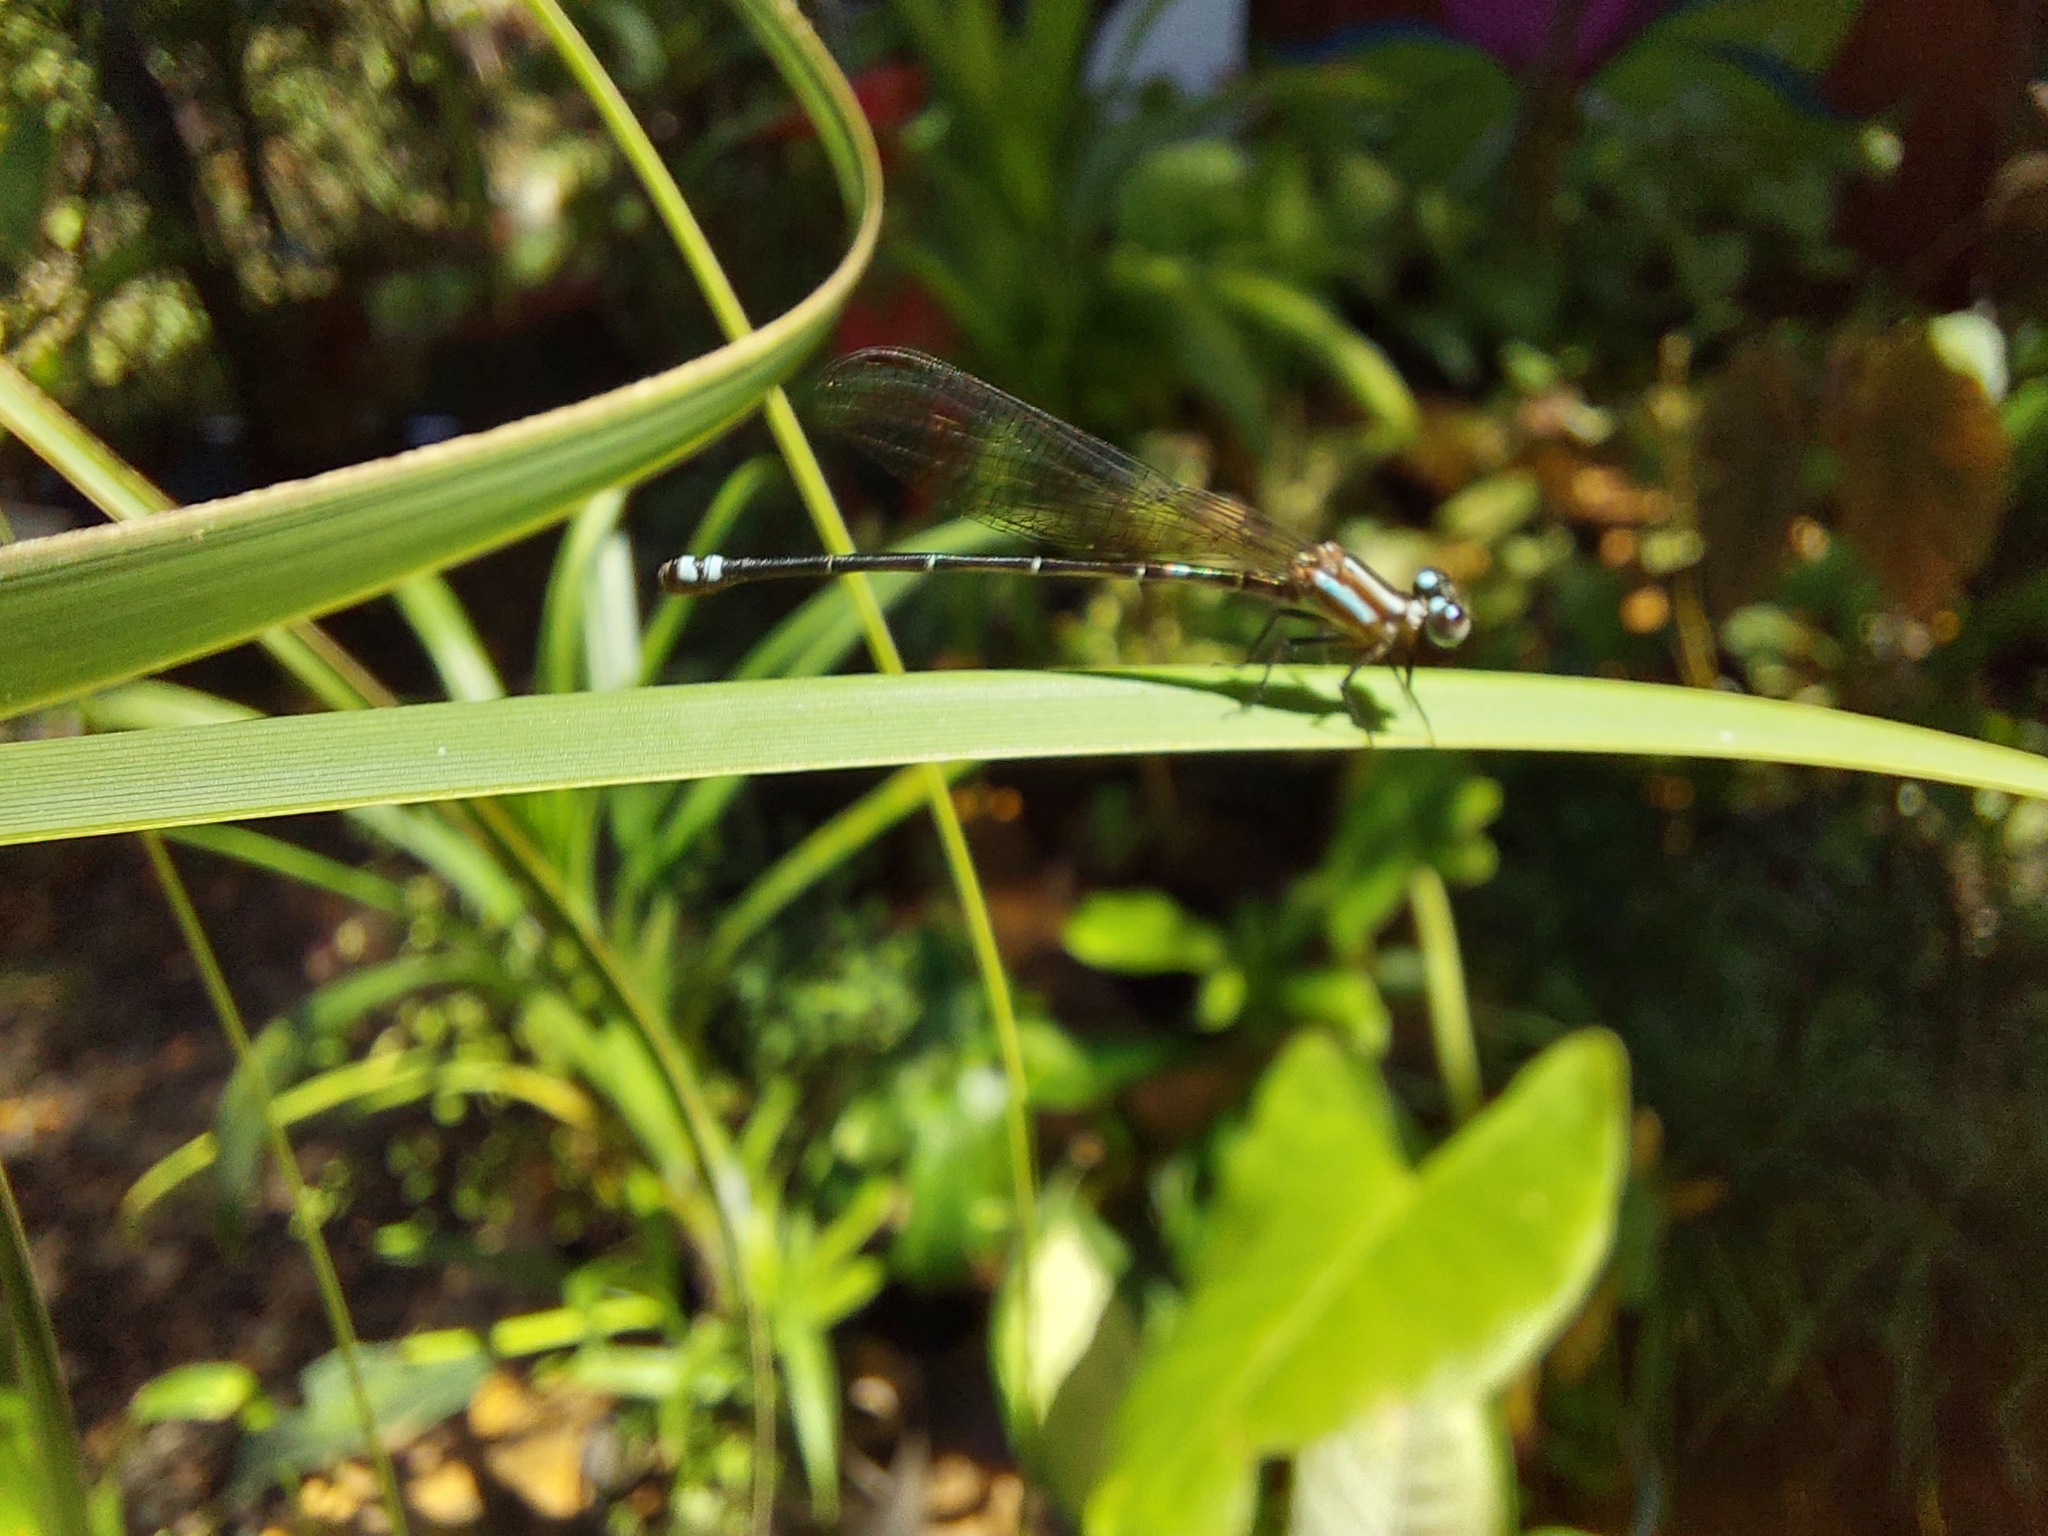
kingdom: Animalia
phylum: Arthropoda
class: Insecta
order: Odonata
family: Coenagrionidae
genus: Argia
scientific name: Argia indicatrix
